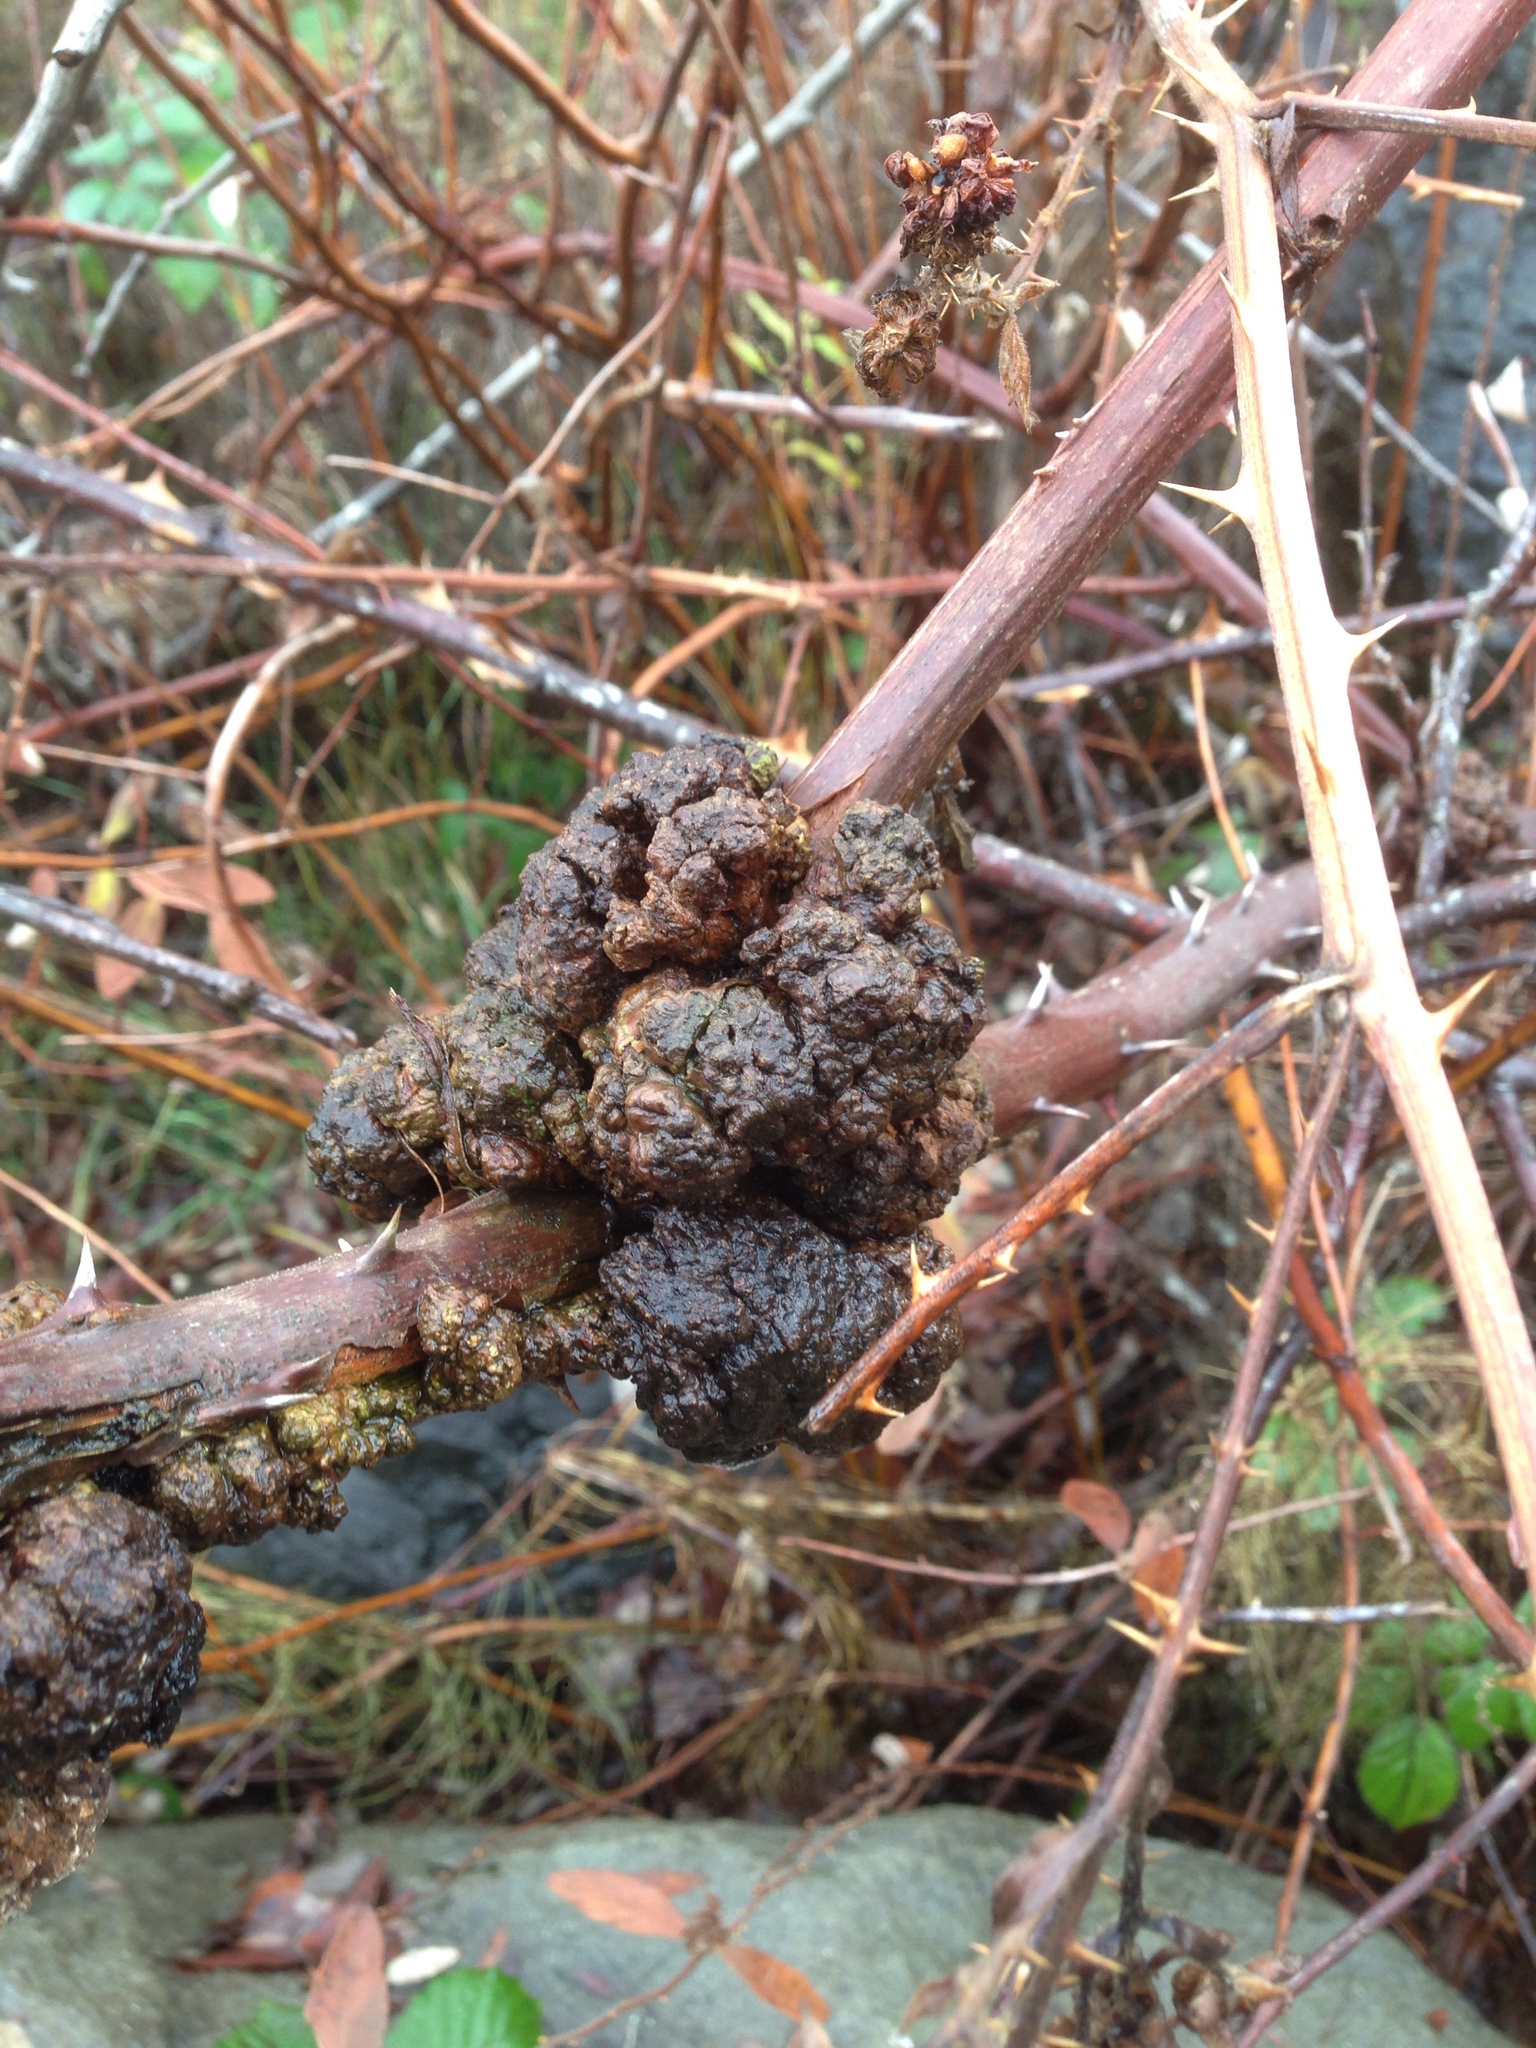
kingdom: Bacteria
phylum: Proteobacteria
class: Alphaproteobacteria
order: Rhizobiales
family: Rhizobiaceae
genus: Rhizobium
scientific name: Rhizobium Agrobacterium radiobacter
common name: Bacterial crown gall
